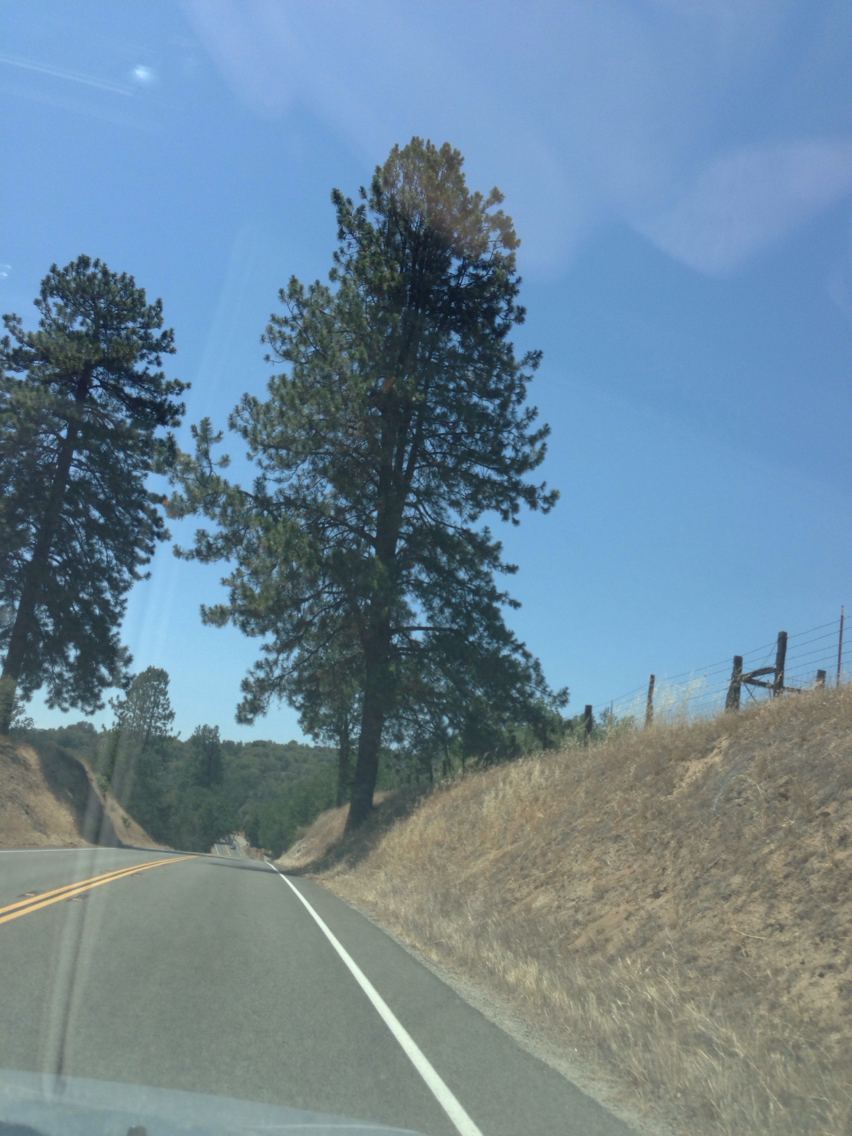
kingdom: Plantae
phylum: Tracheophyta
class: Pinopsida
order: Pinales
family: Pinaceae
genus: Pinus
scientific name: Pinus ponderosa
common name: Western yellow-pine
